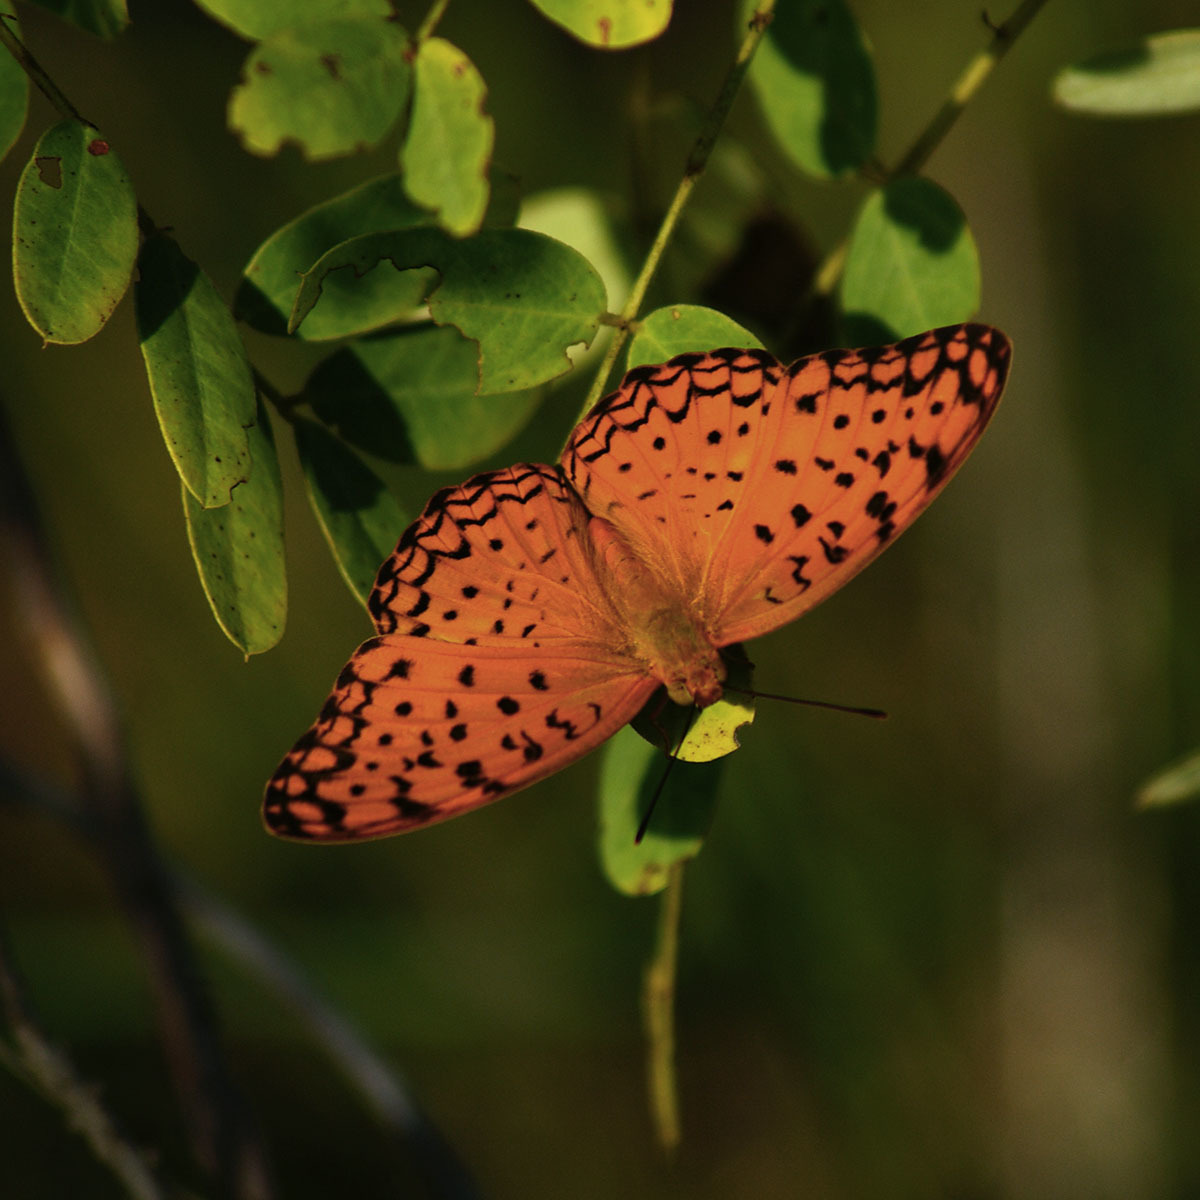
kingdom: Animalia
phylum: Arthropoda
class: Insecta
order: Lepidoptera
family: Nymphalidae
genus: Phalanta
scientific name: Phalanta phalantha
